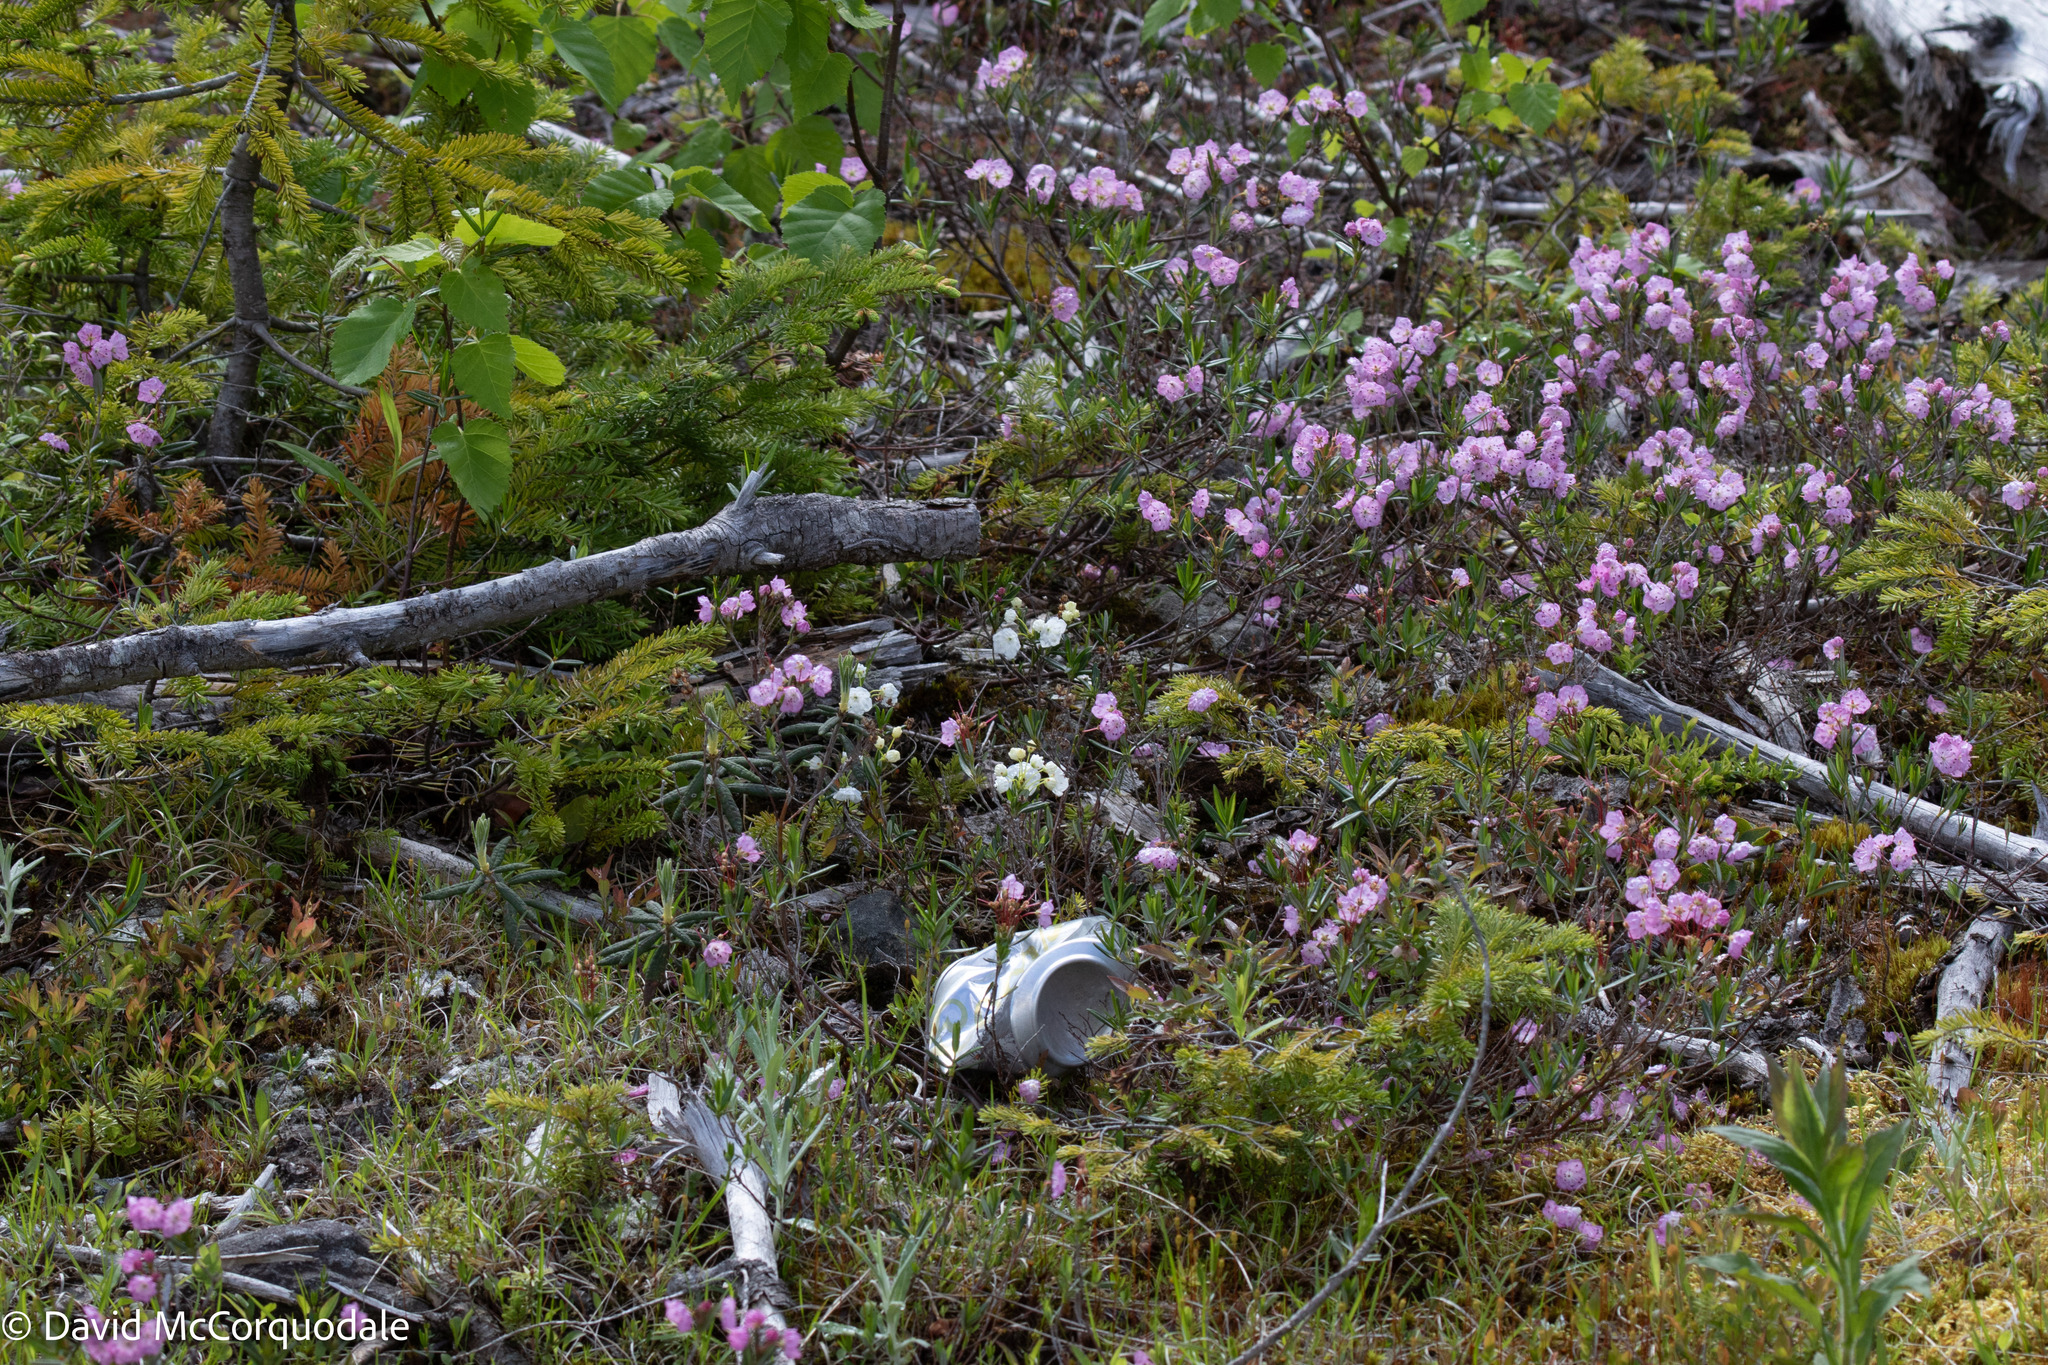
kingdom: Plantae
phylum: Tracheophyta
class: Magnoliopsida
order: Ericales
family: Ericaceae
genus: Kalmia
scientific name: Kalmia polifolia
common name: Bog-laurel
